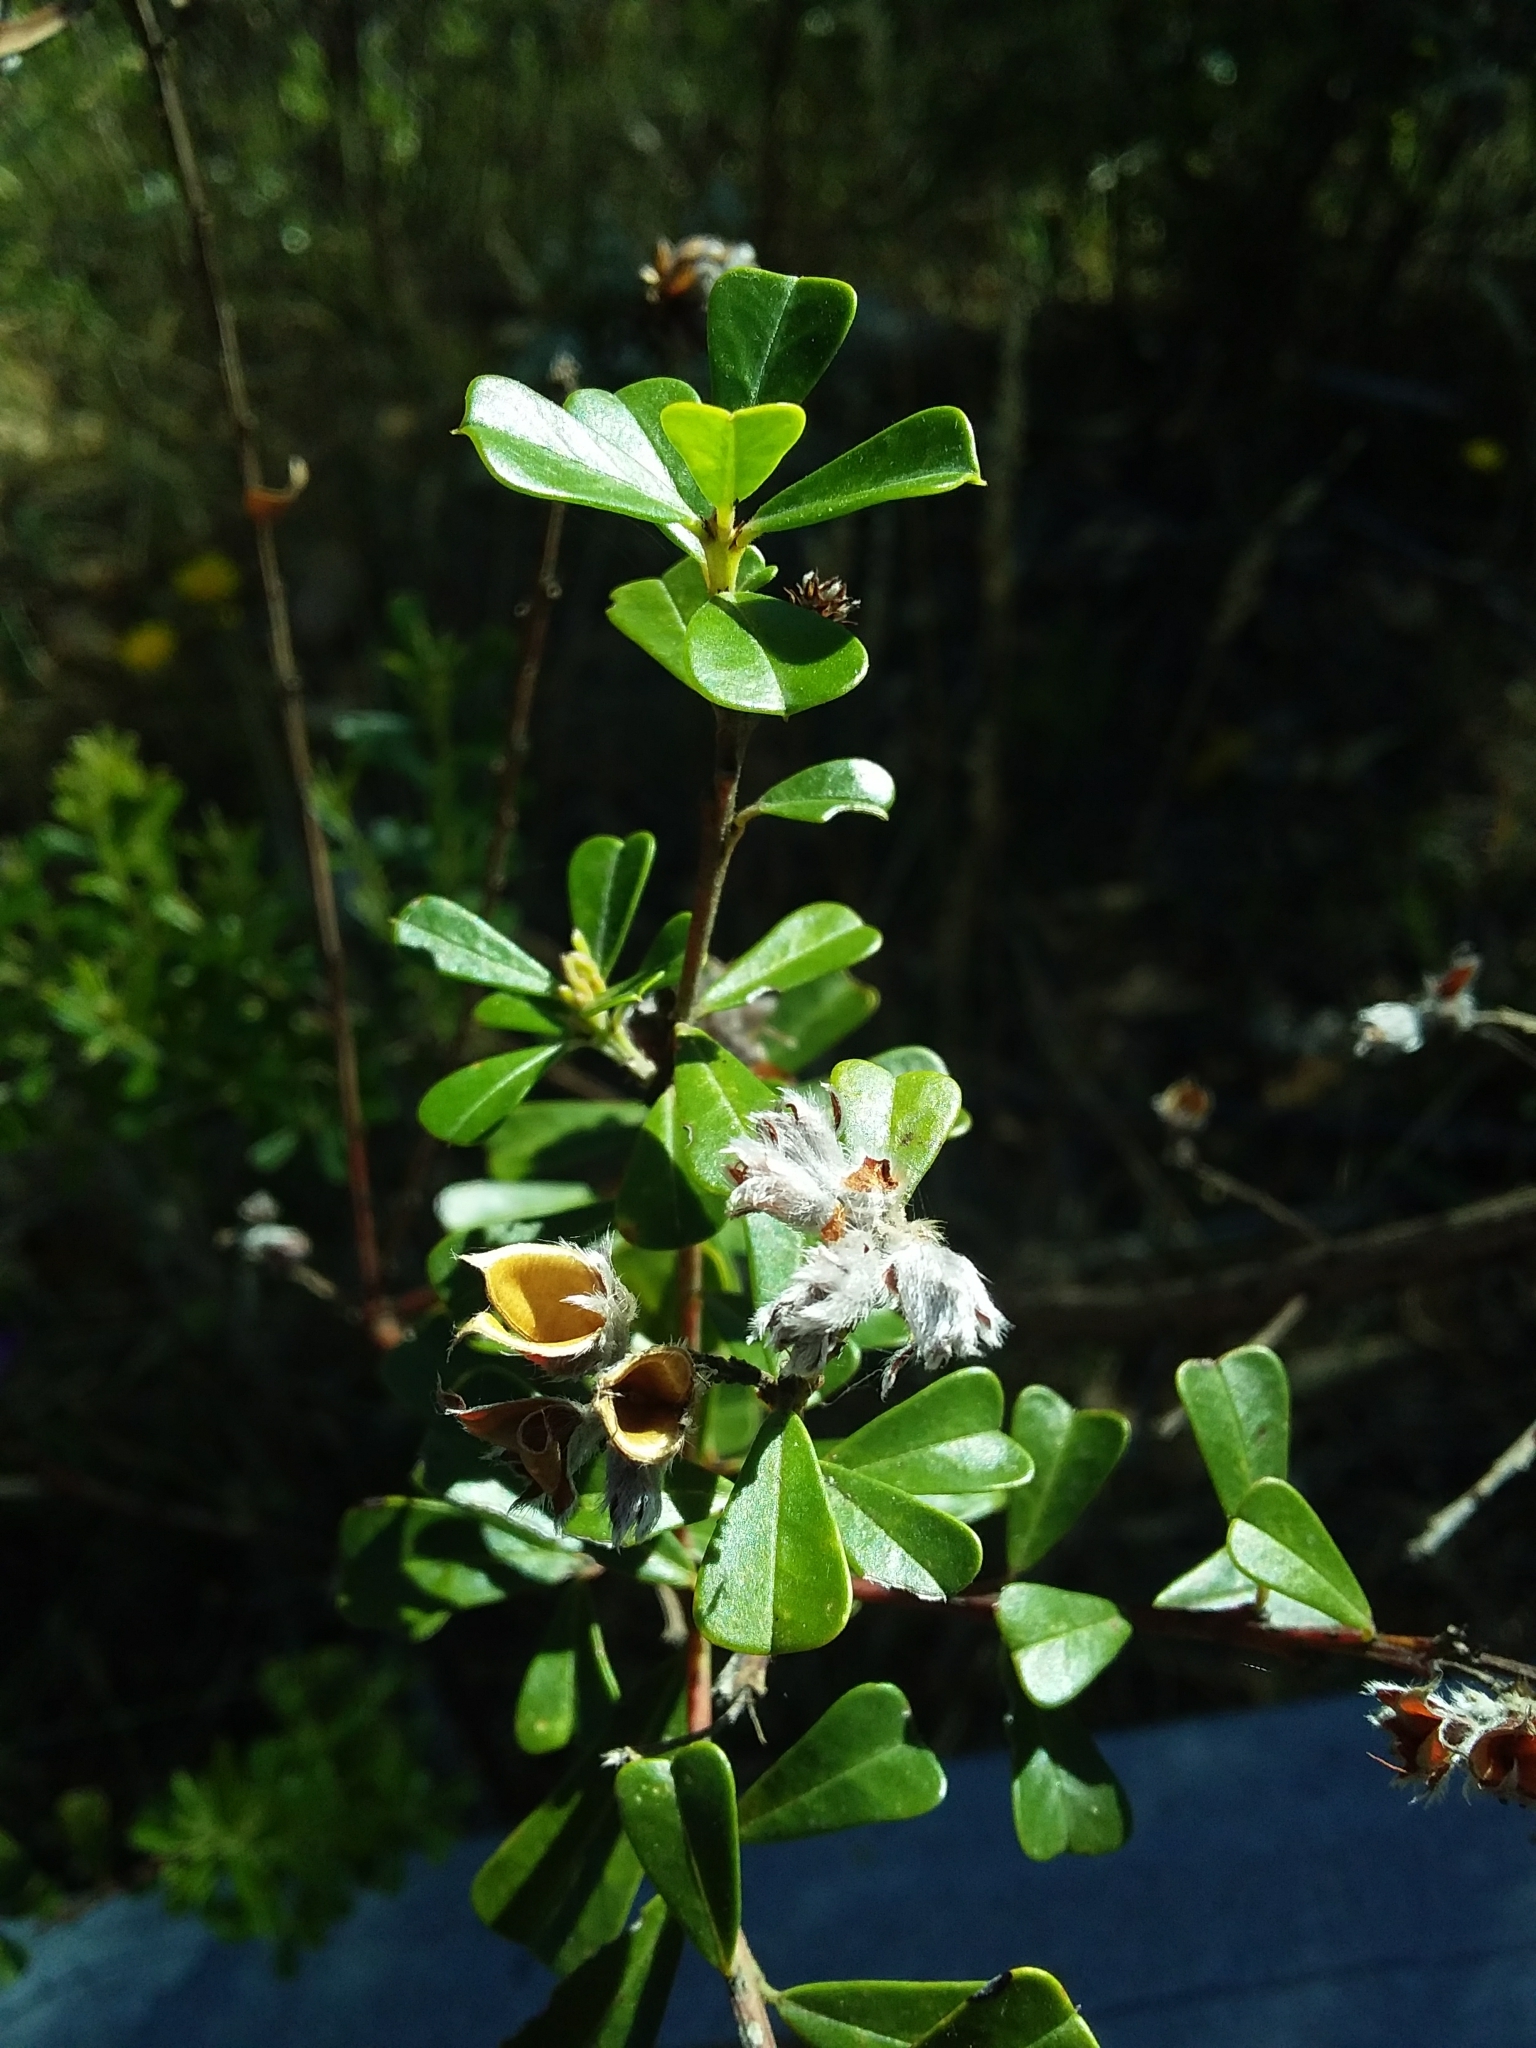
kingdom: Plantae
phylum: Tracheophyta
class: Magnoliopsida
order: Fabales
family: Fabaceae
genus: Pultenaea
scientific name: Pultenaea daphnoides
